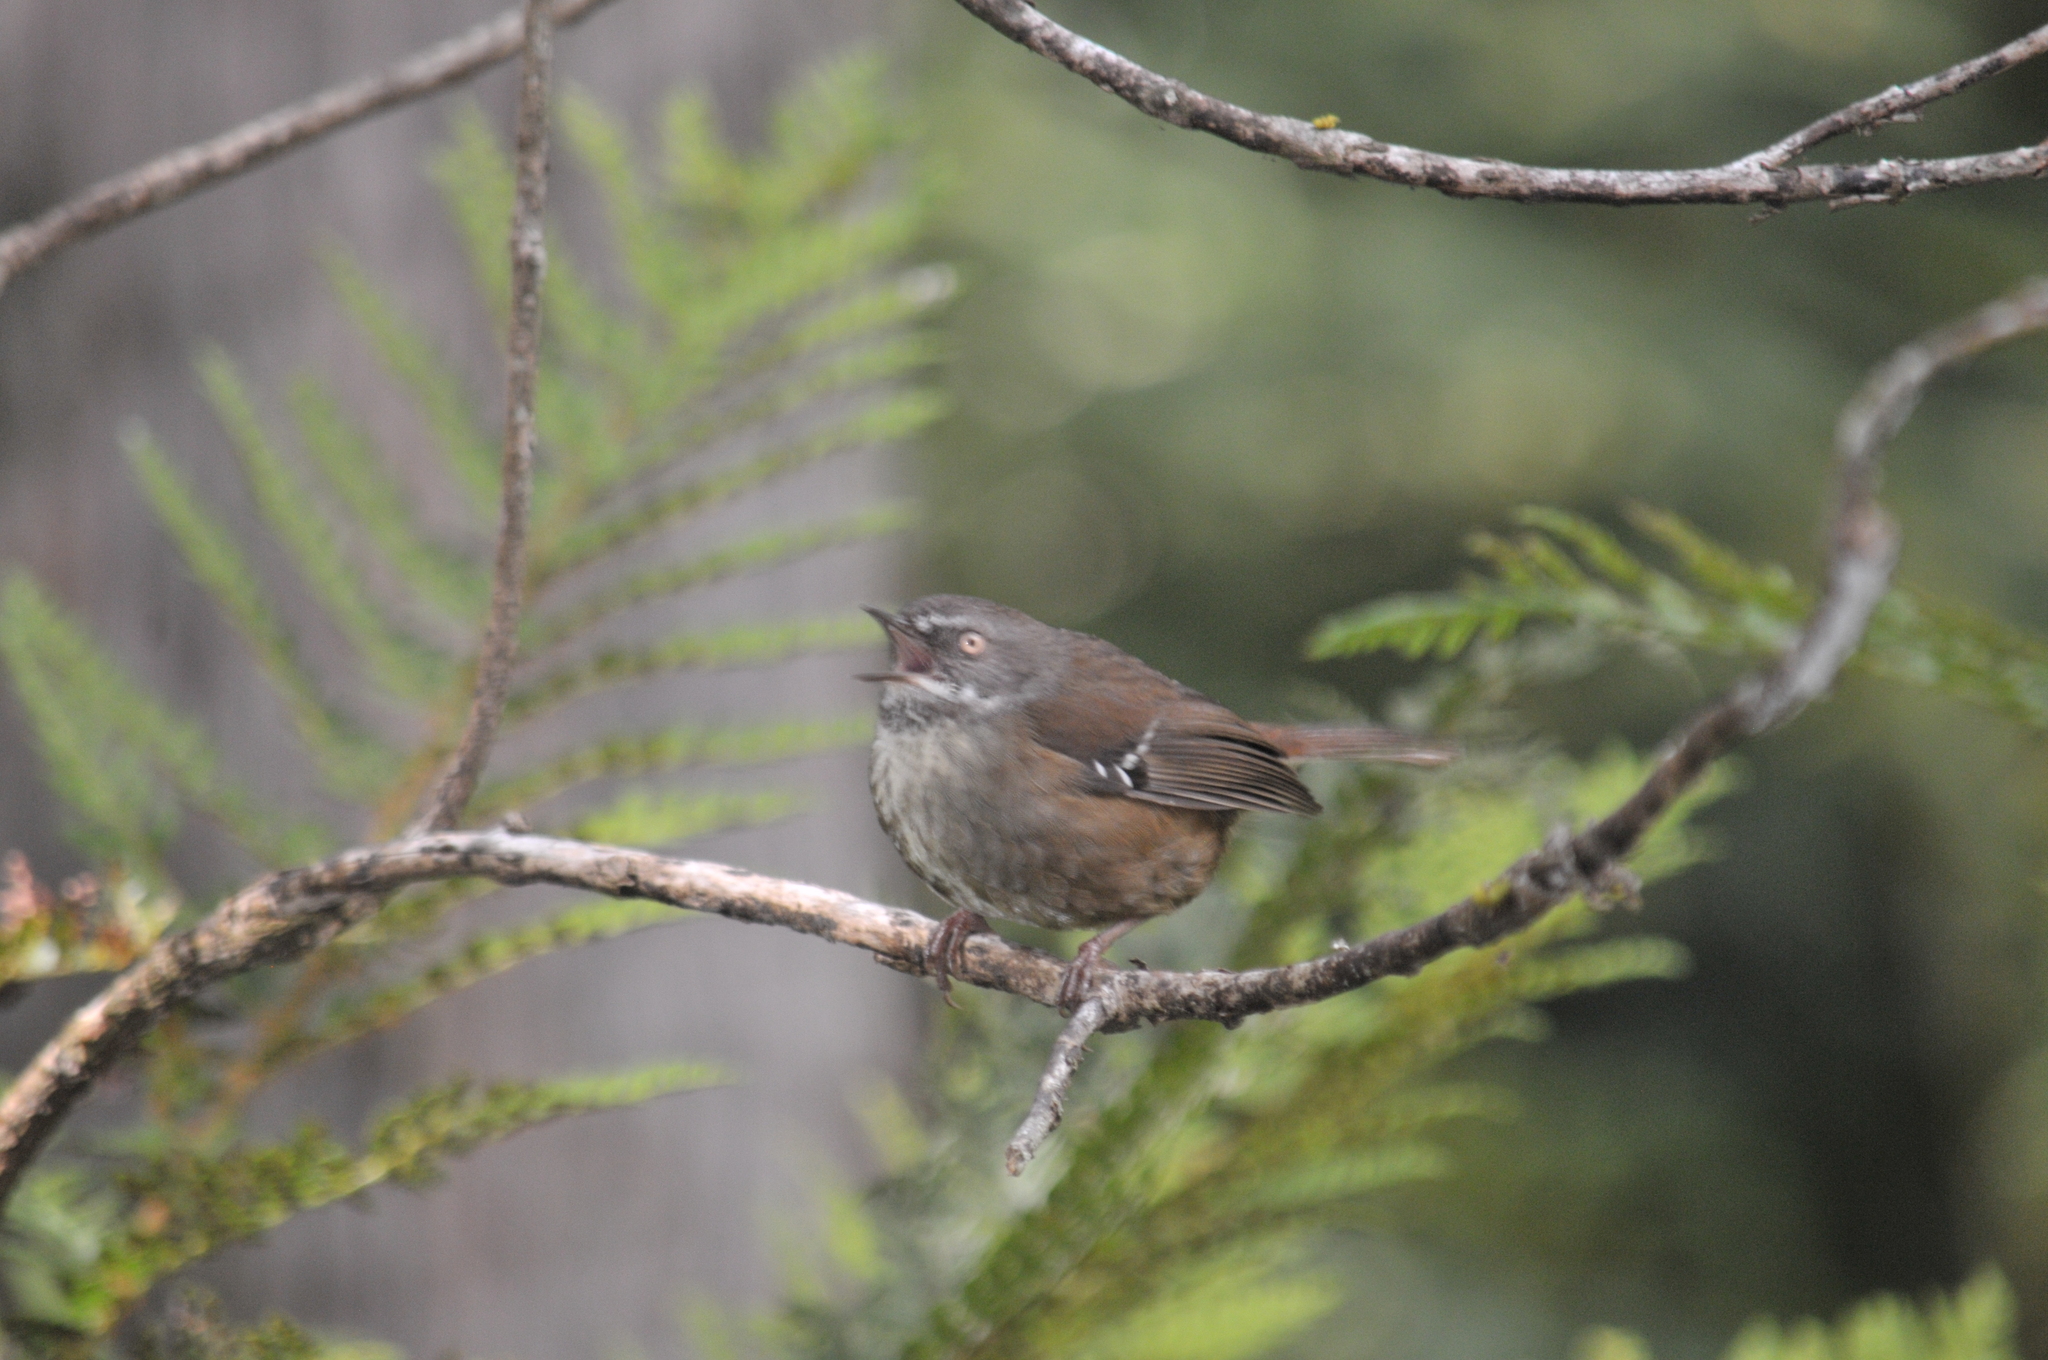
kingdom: Animalia
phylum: Chordata
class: Aves
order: Passeriformes
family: Acanthizidae
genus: Sericornis
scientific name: Sericornis humilis
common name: Tasmanian scrubwren
